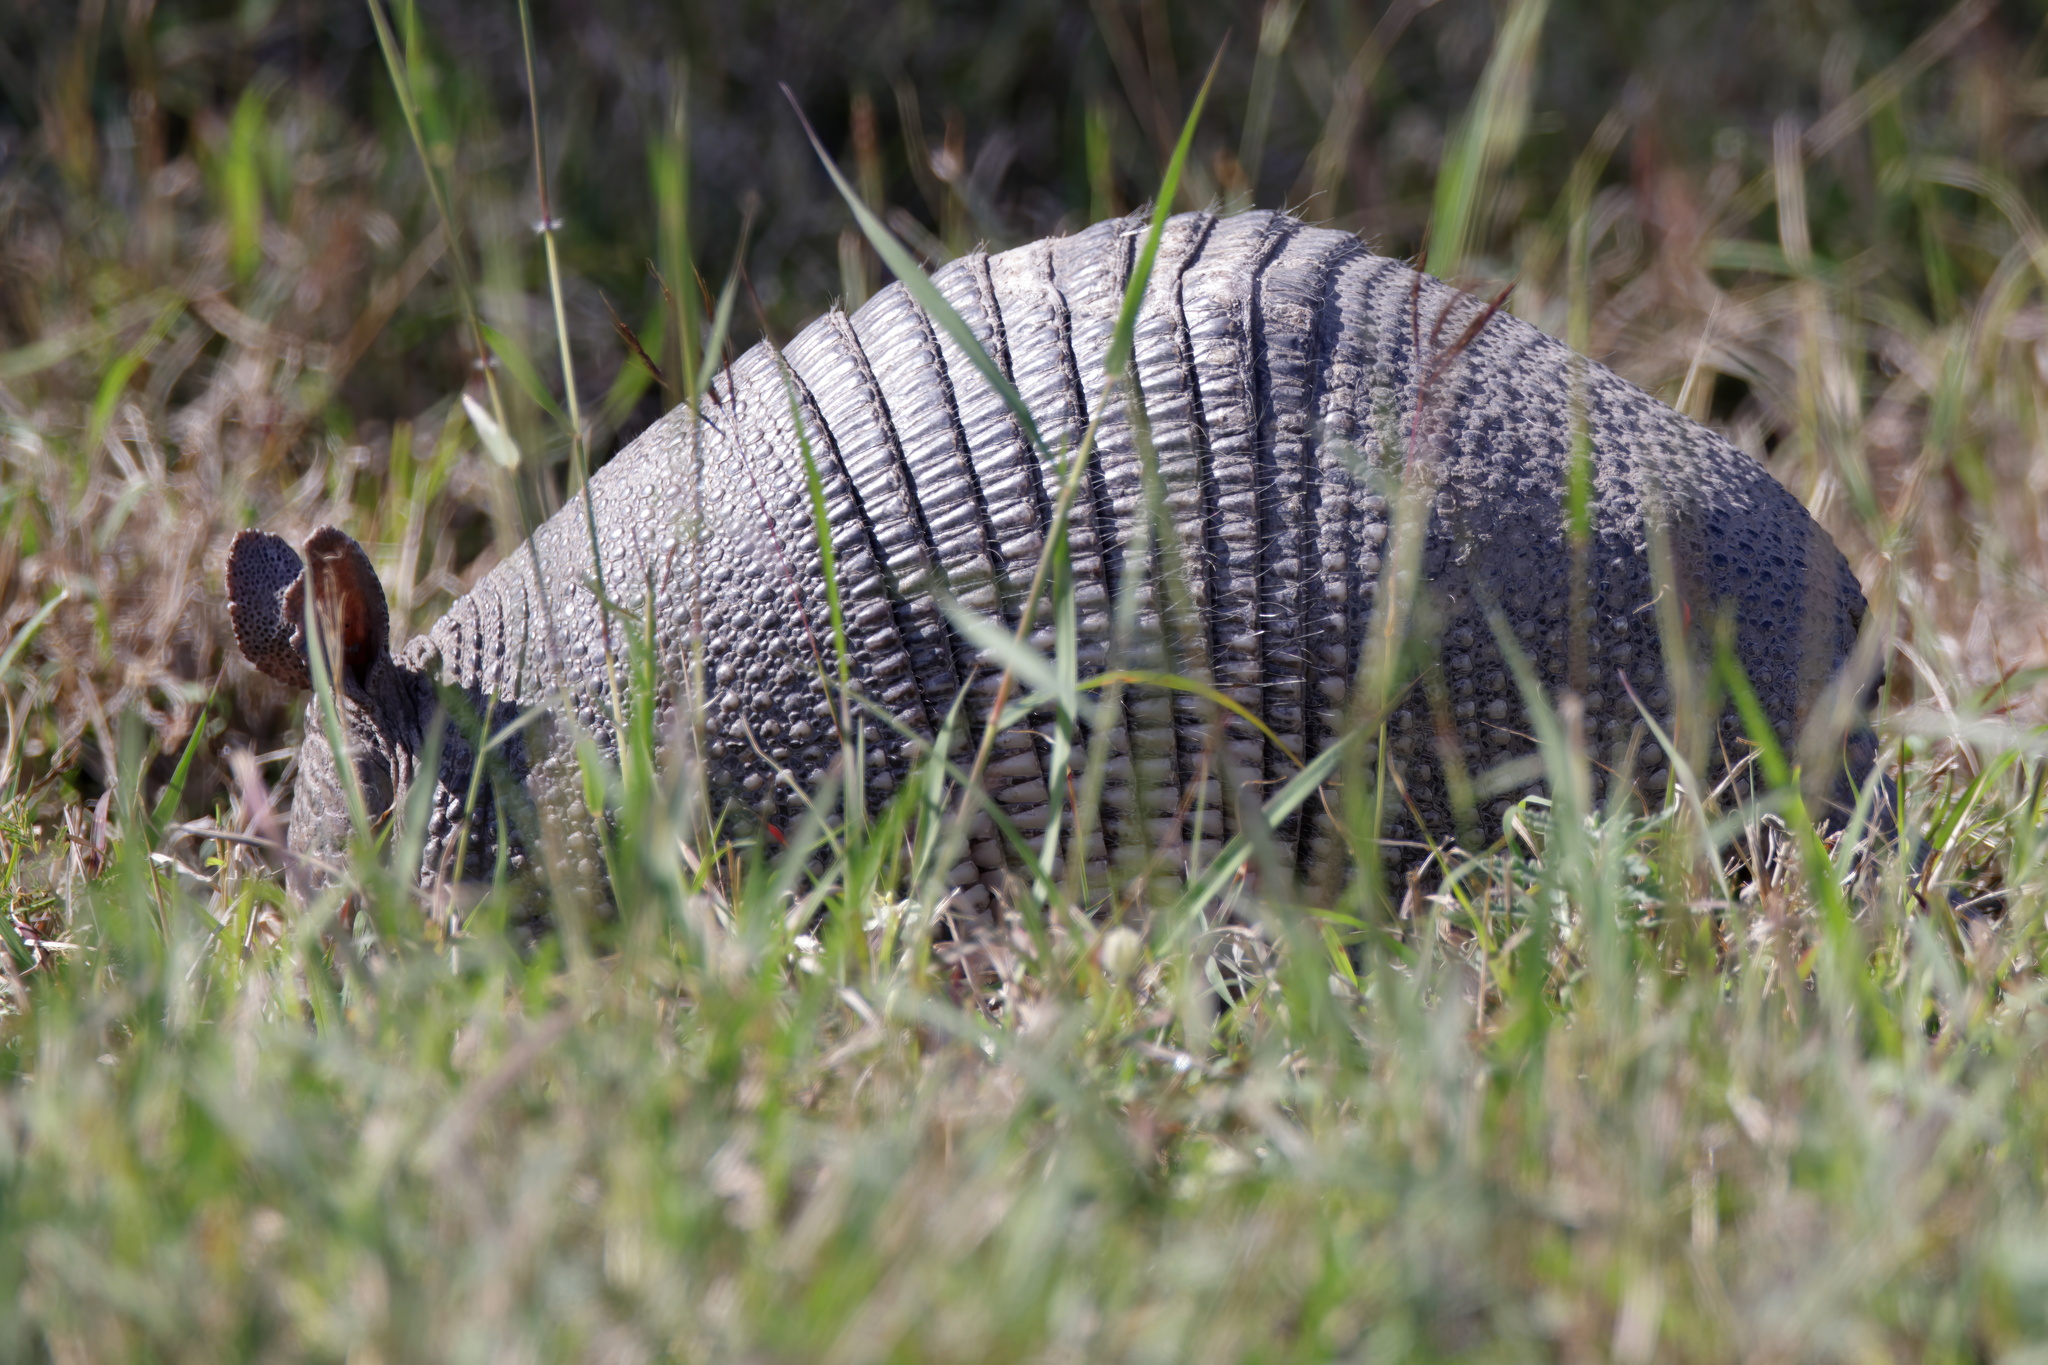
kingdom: Animalia
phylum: Chordata
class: Mammalia
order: Cingulata
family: Dasypodidae
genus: Dasypus
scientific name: Dasypus novemcinctus
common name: Nine-banded armadillo
